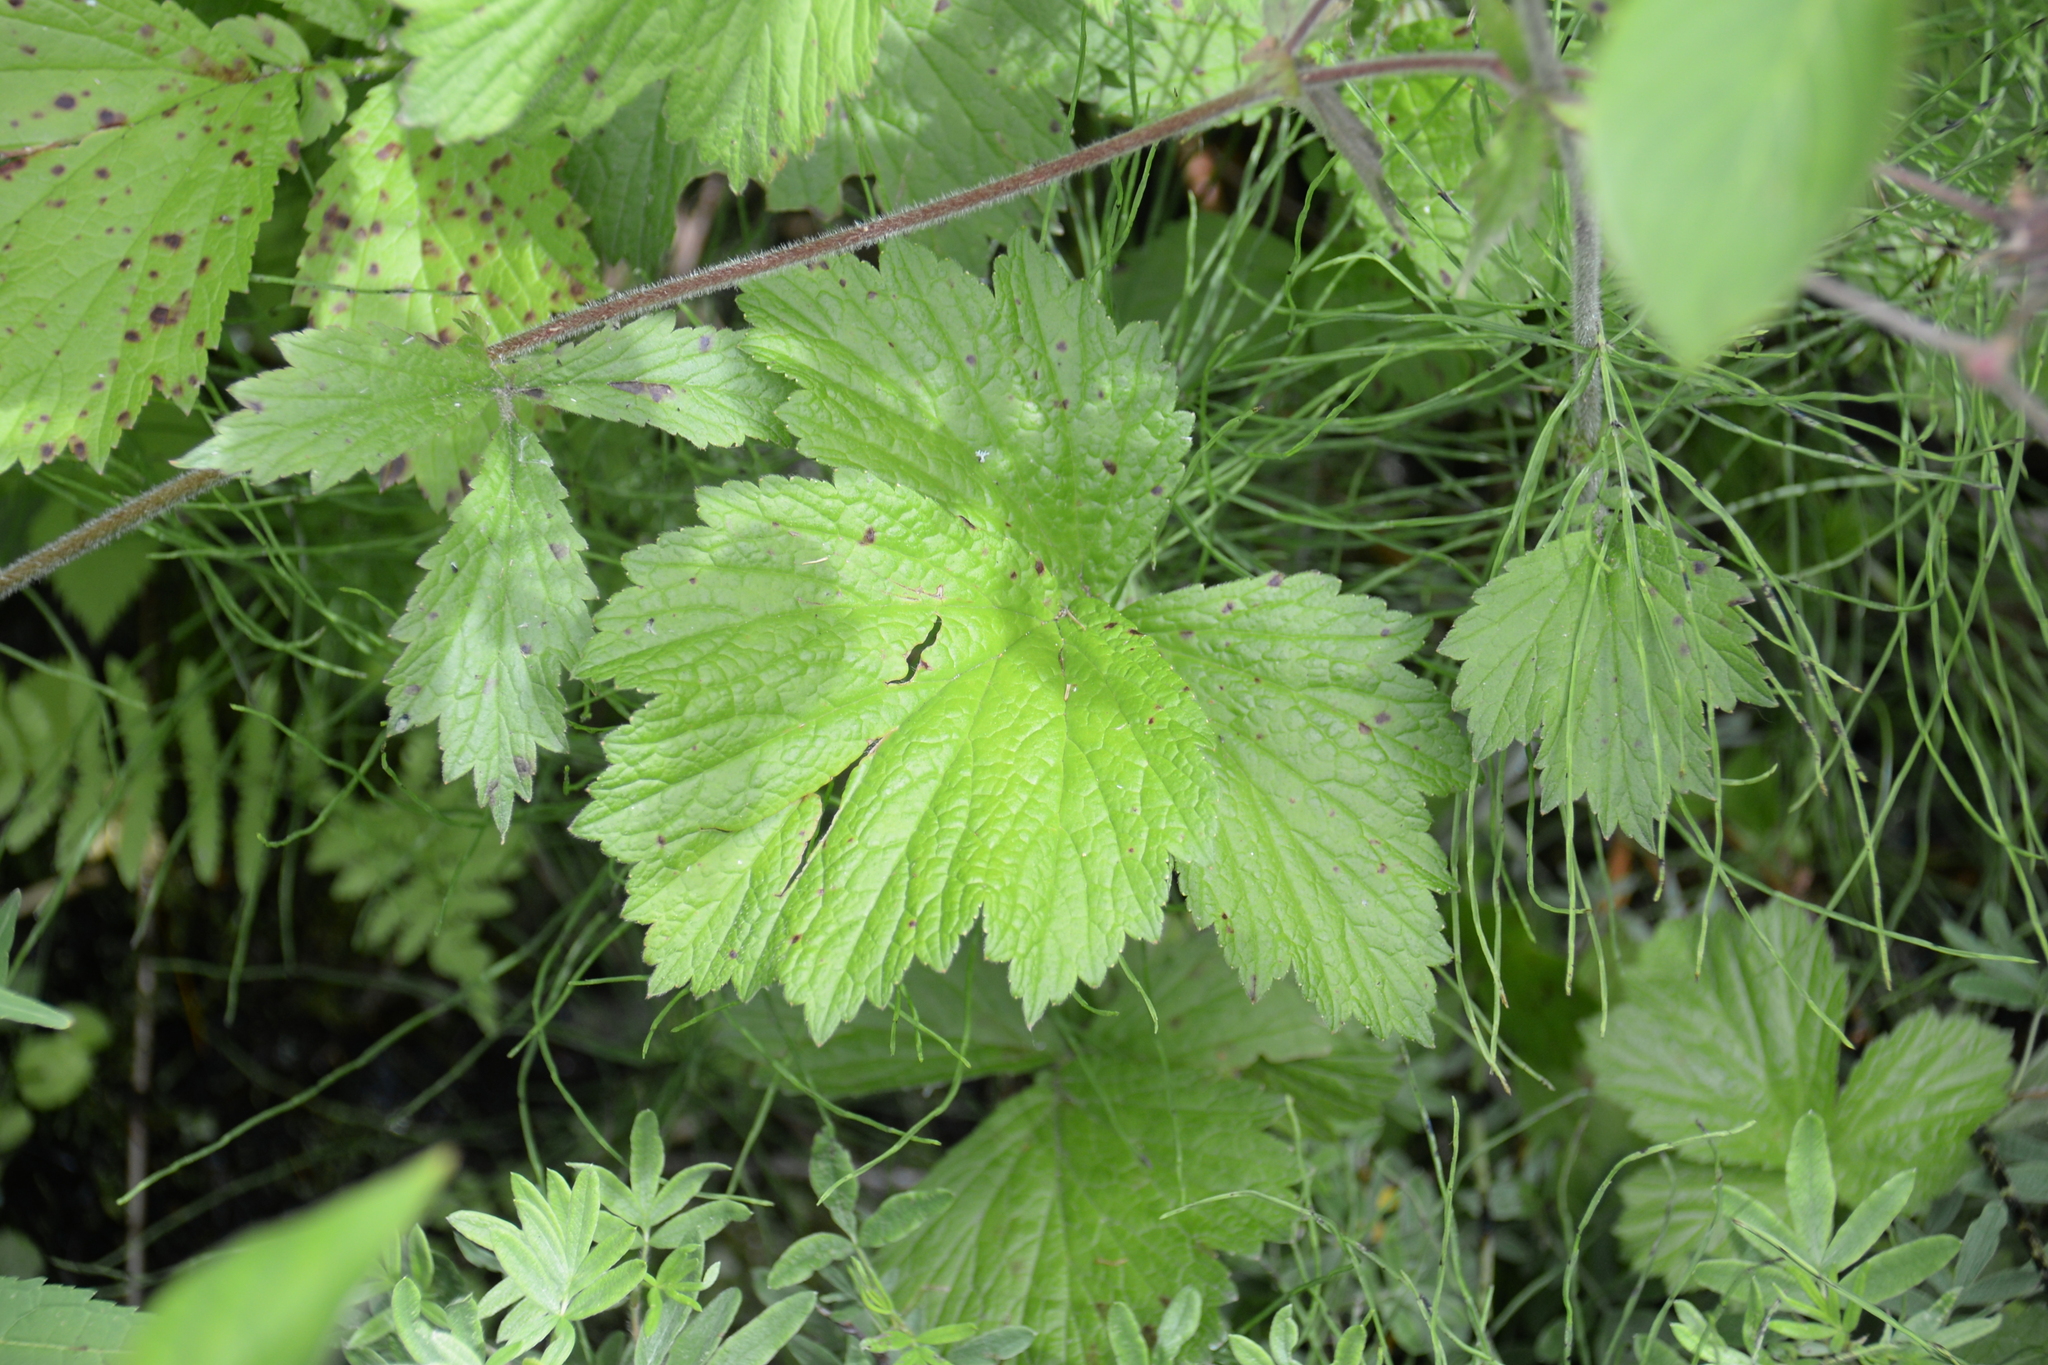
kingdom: Plantae
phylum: Tracheophyta
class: Magnoliopsida
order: Rosales
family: Rosaceae
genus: Geum
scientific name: Geum rivale
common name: Water avens
